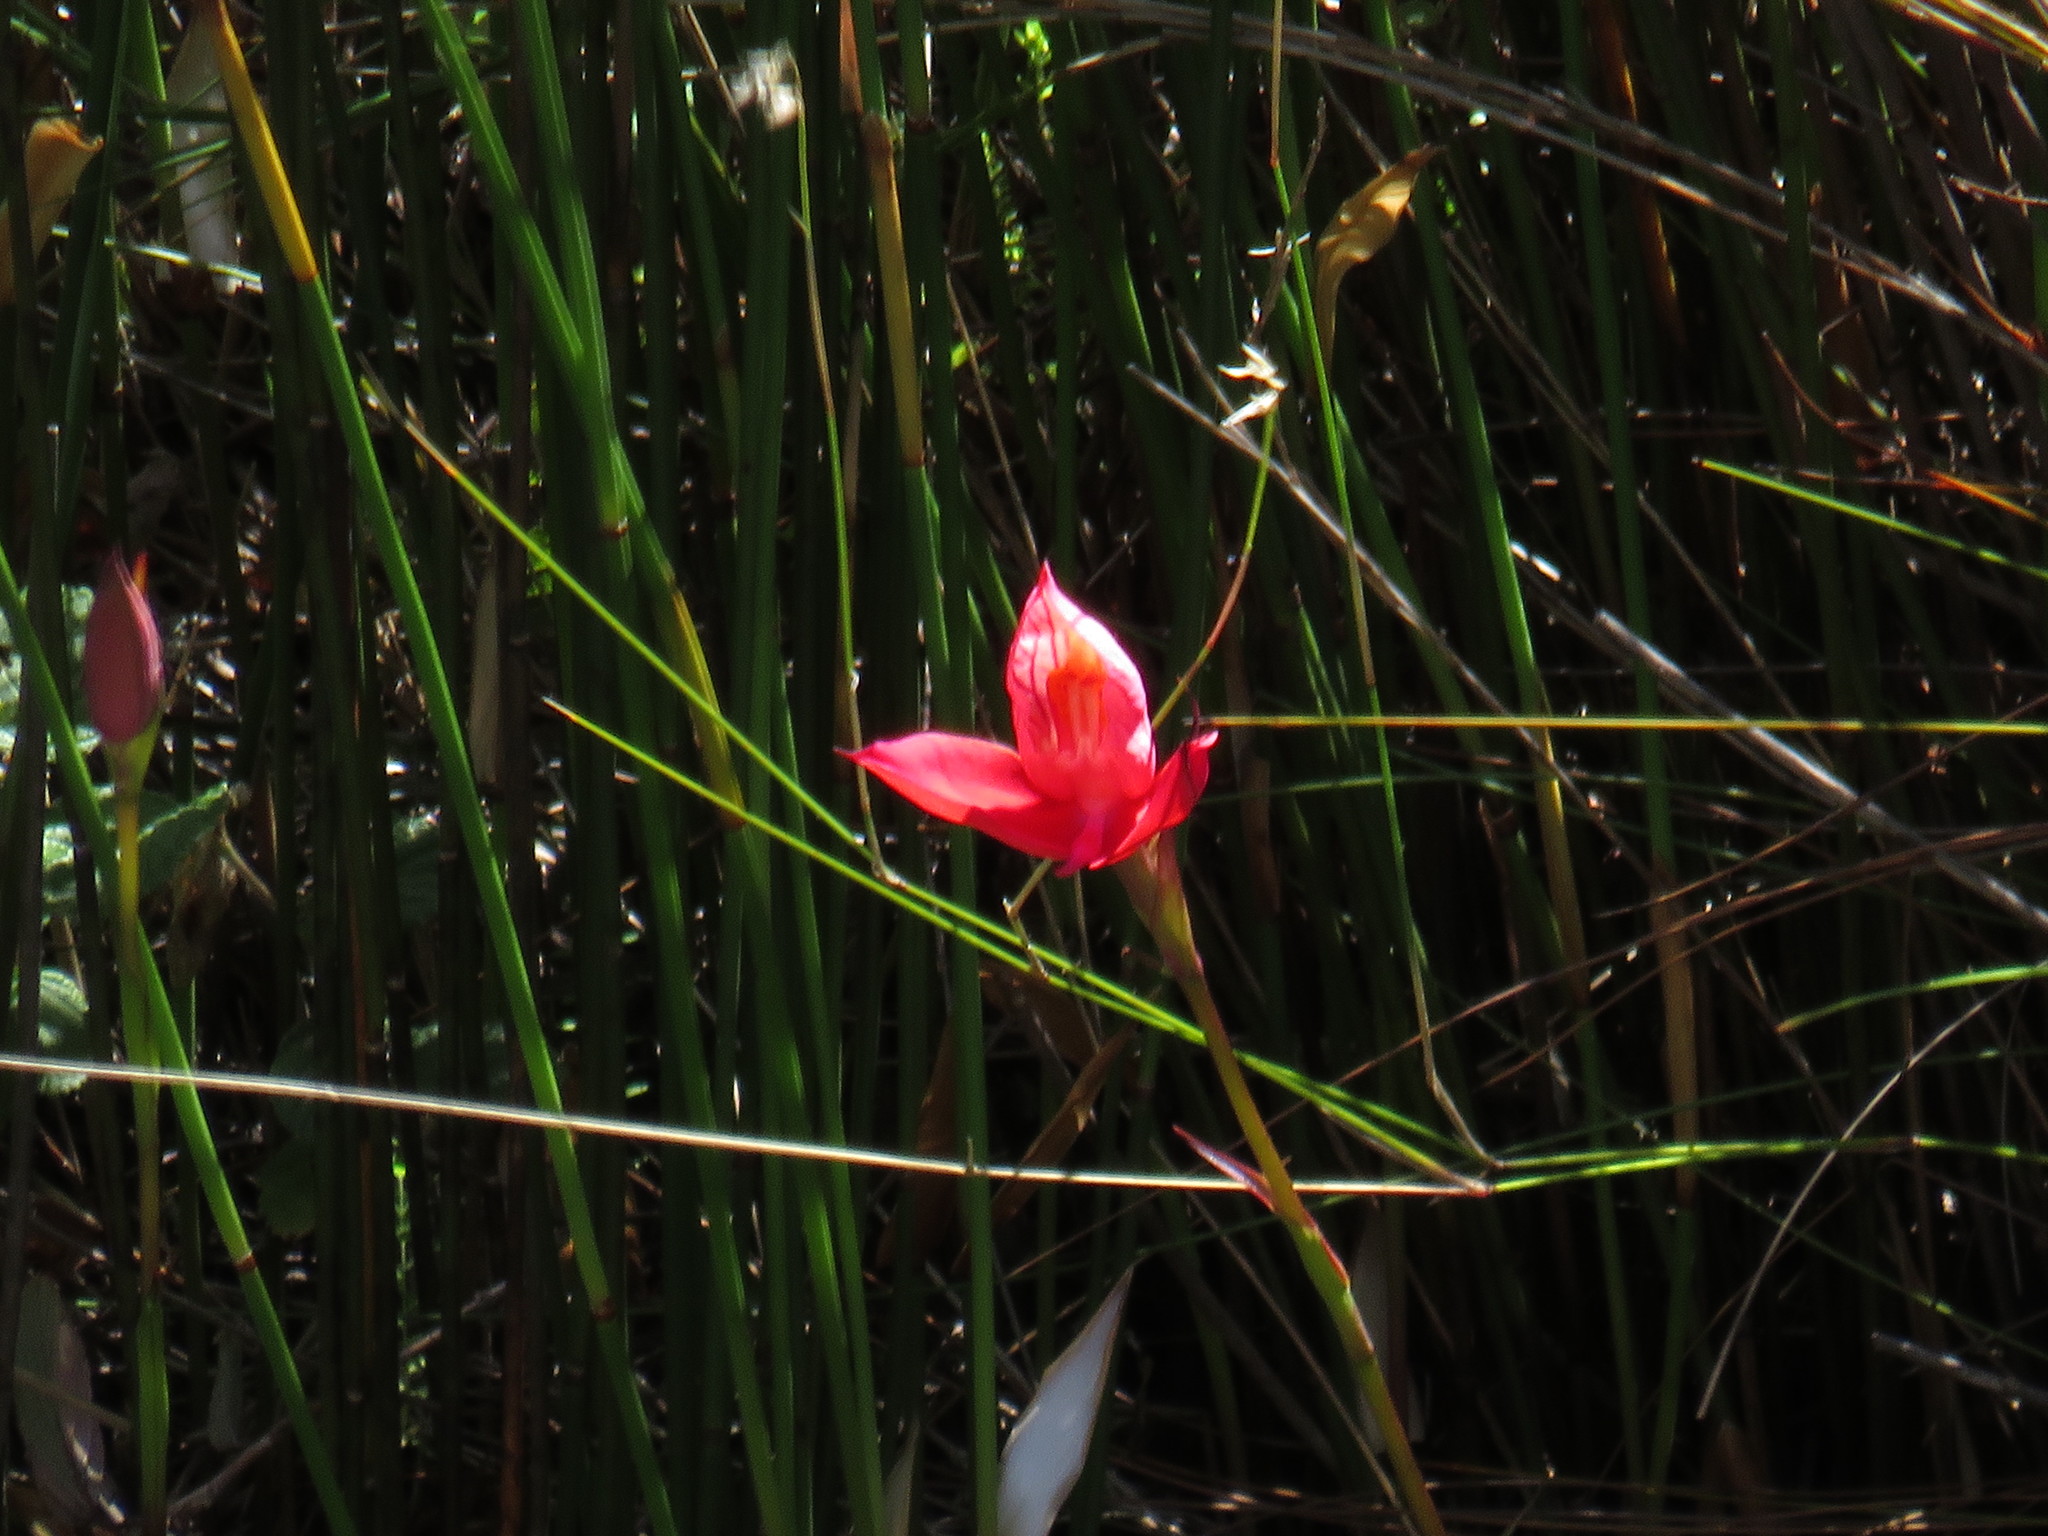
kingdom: Plantae
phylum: Tracheophyta
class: Liliopsida
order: Asparagales
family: Orchidaceae
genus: Disa
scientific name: Disa uniflora
